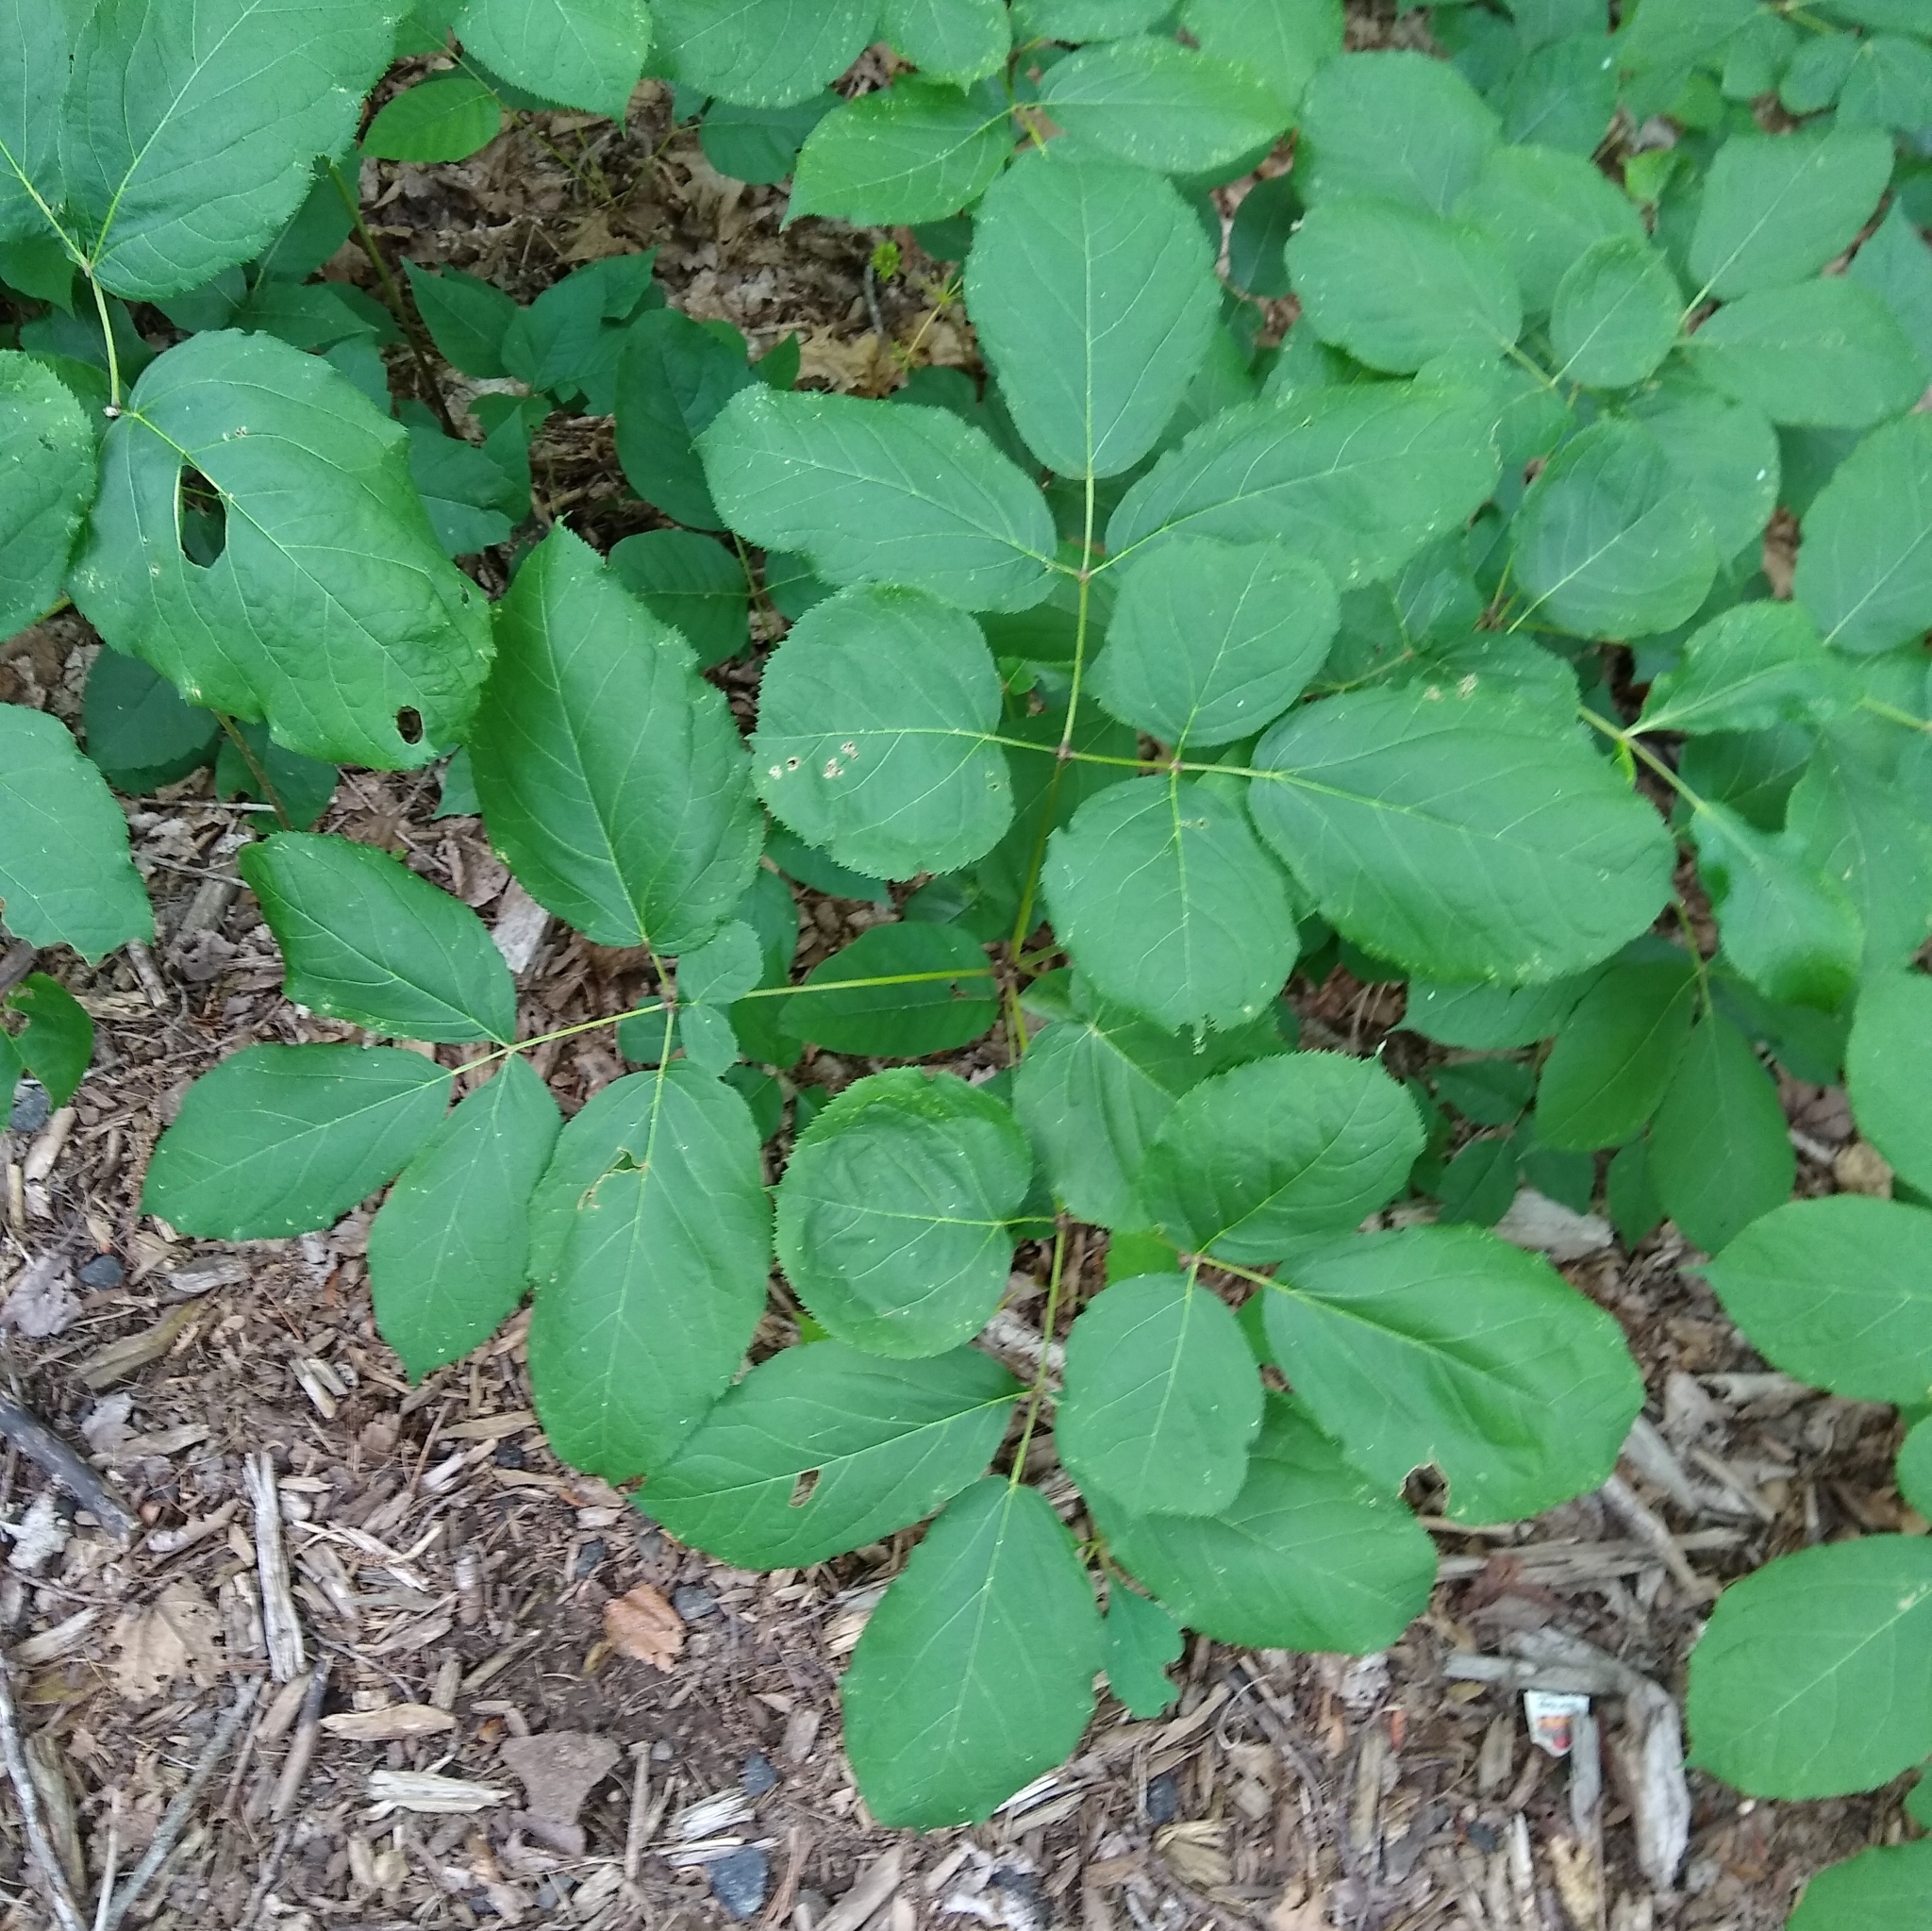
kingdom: Plantae
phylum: Tracheophyta
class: Magnoliopsida
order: Apiales
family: Araliaceae
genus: Aralia
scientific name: Aralia nudicaulis
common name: Wild sarsaparilla
